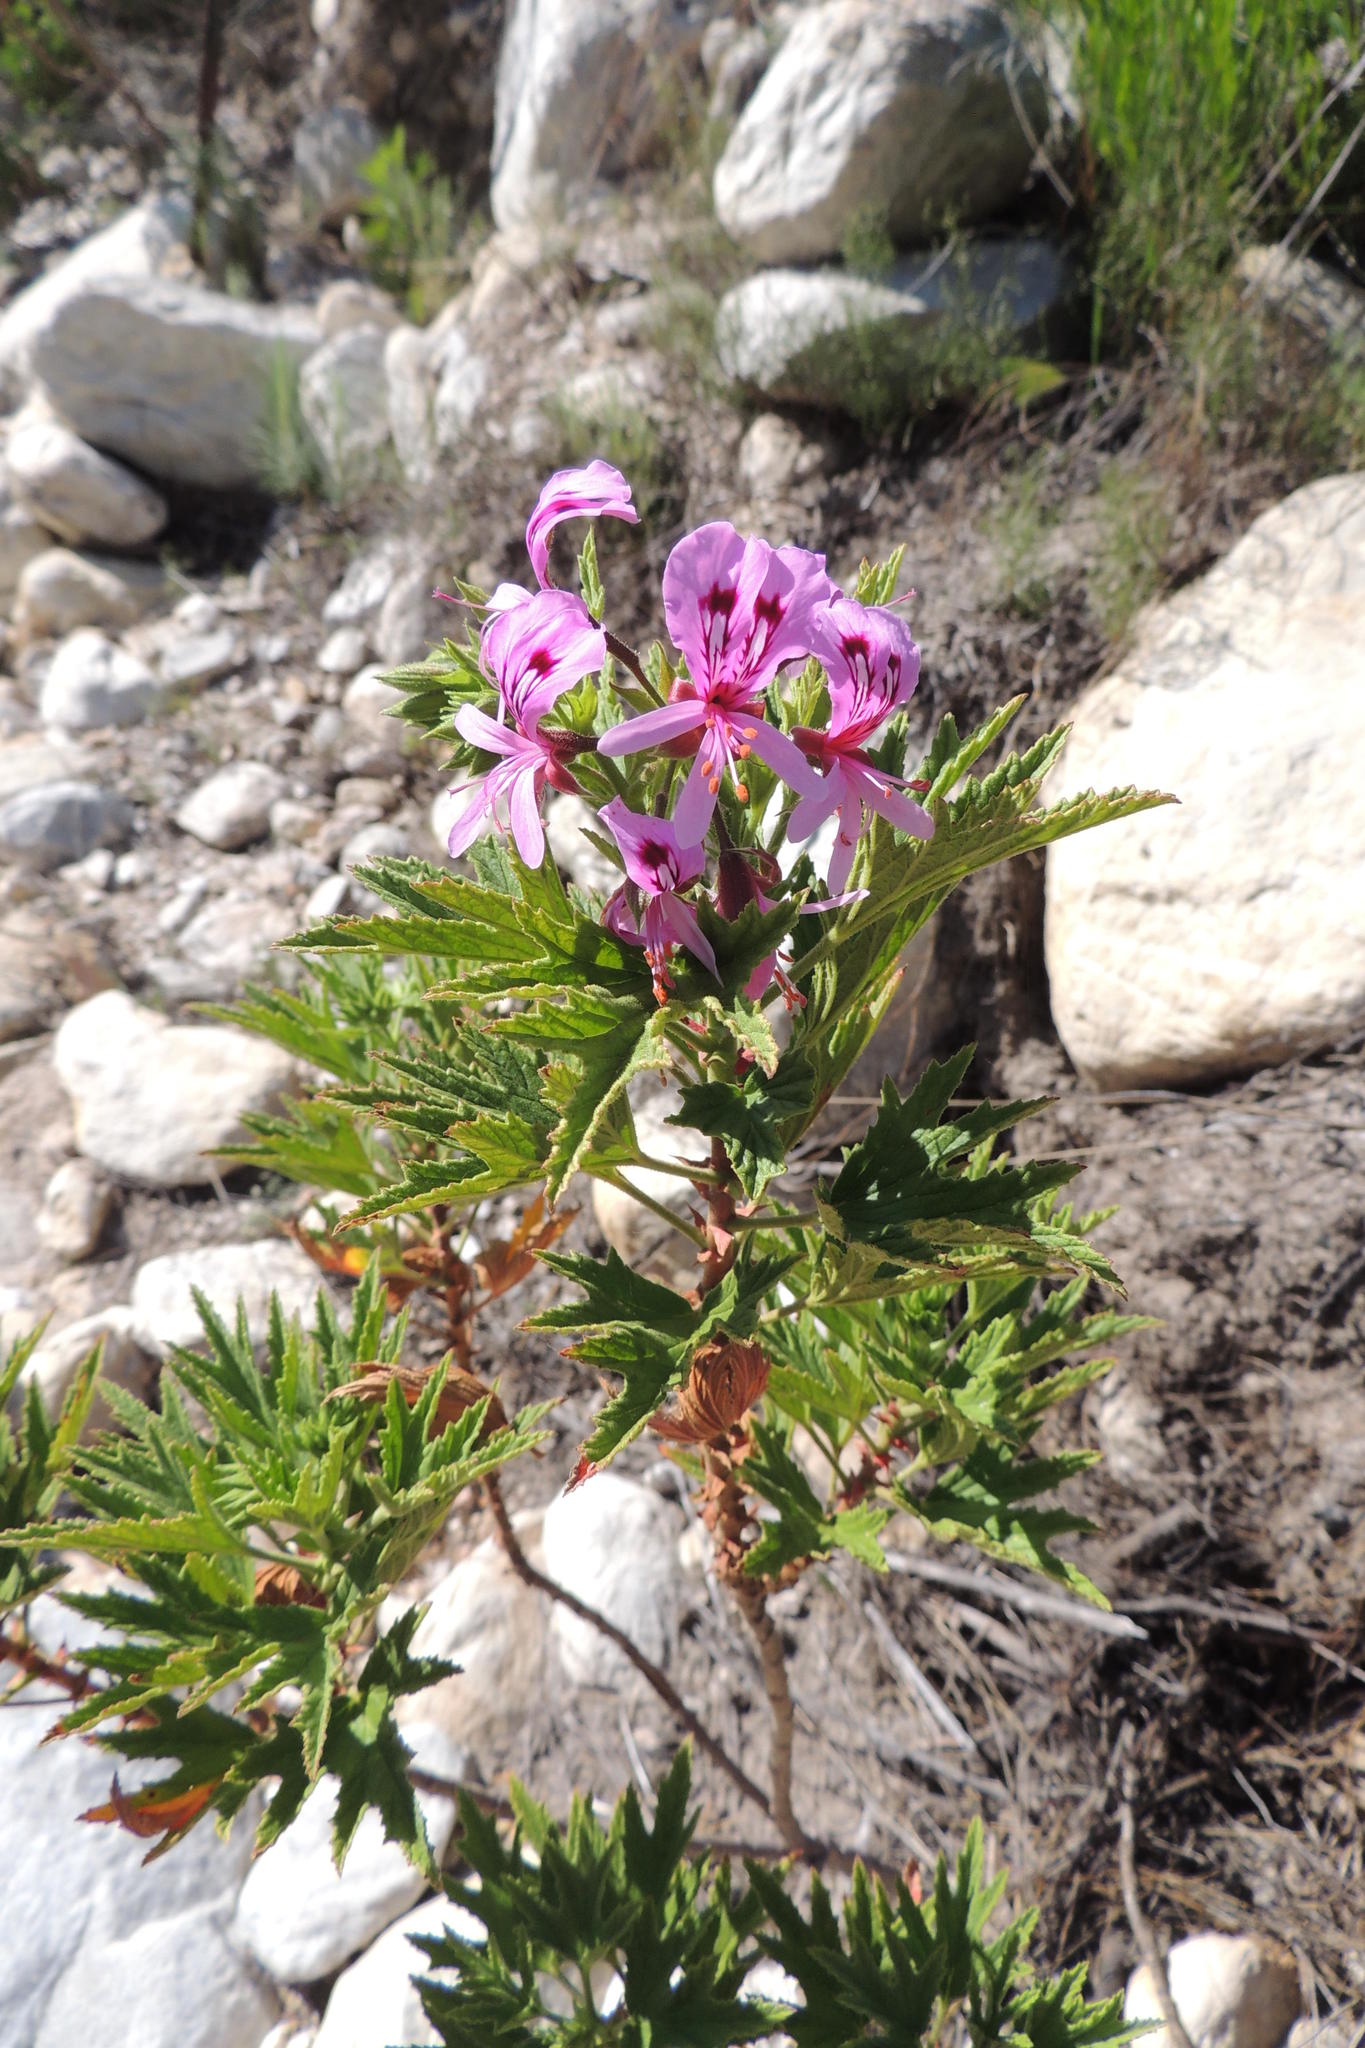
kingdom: Plantae
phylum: Tracheophyta
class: Magnoliopsida
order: Geraniales
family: Geraniaceae
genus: Pelargonium
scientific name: Pelargonium citronellum
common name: Lemon-scent pelargonium
